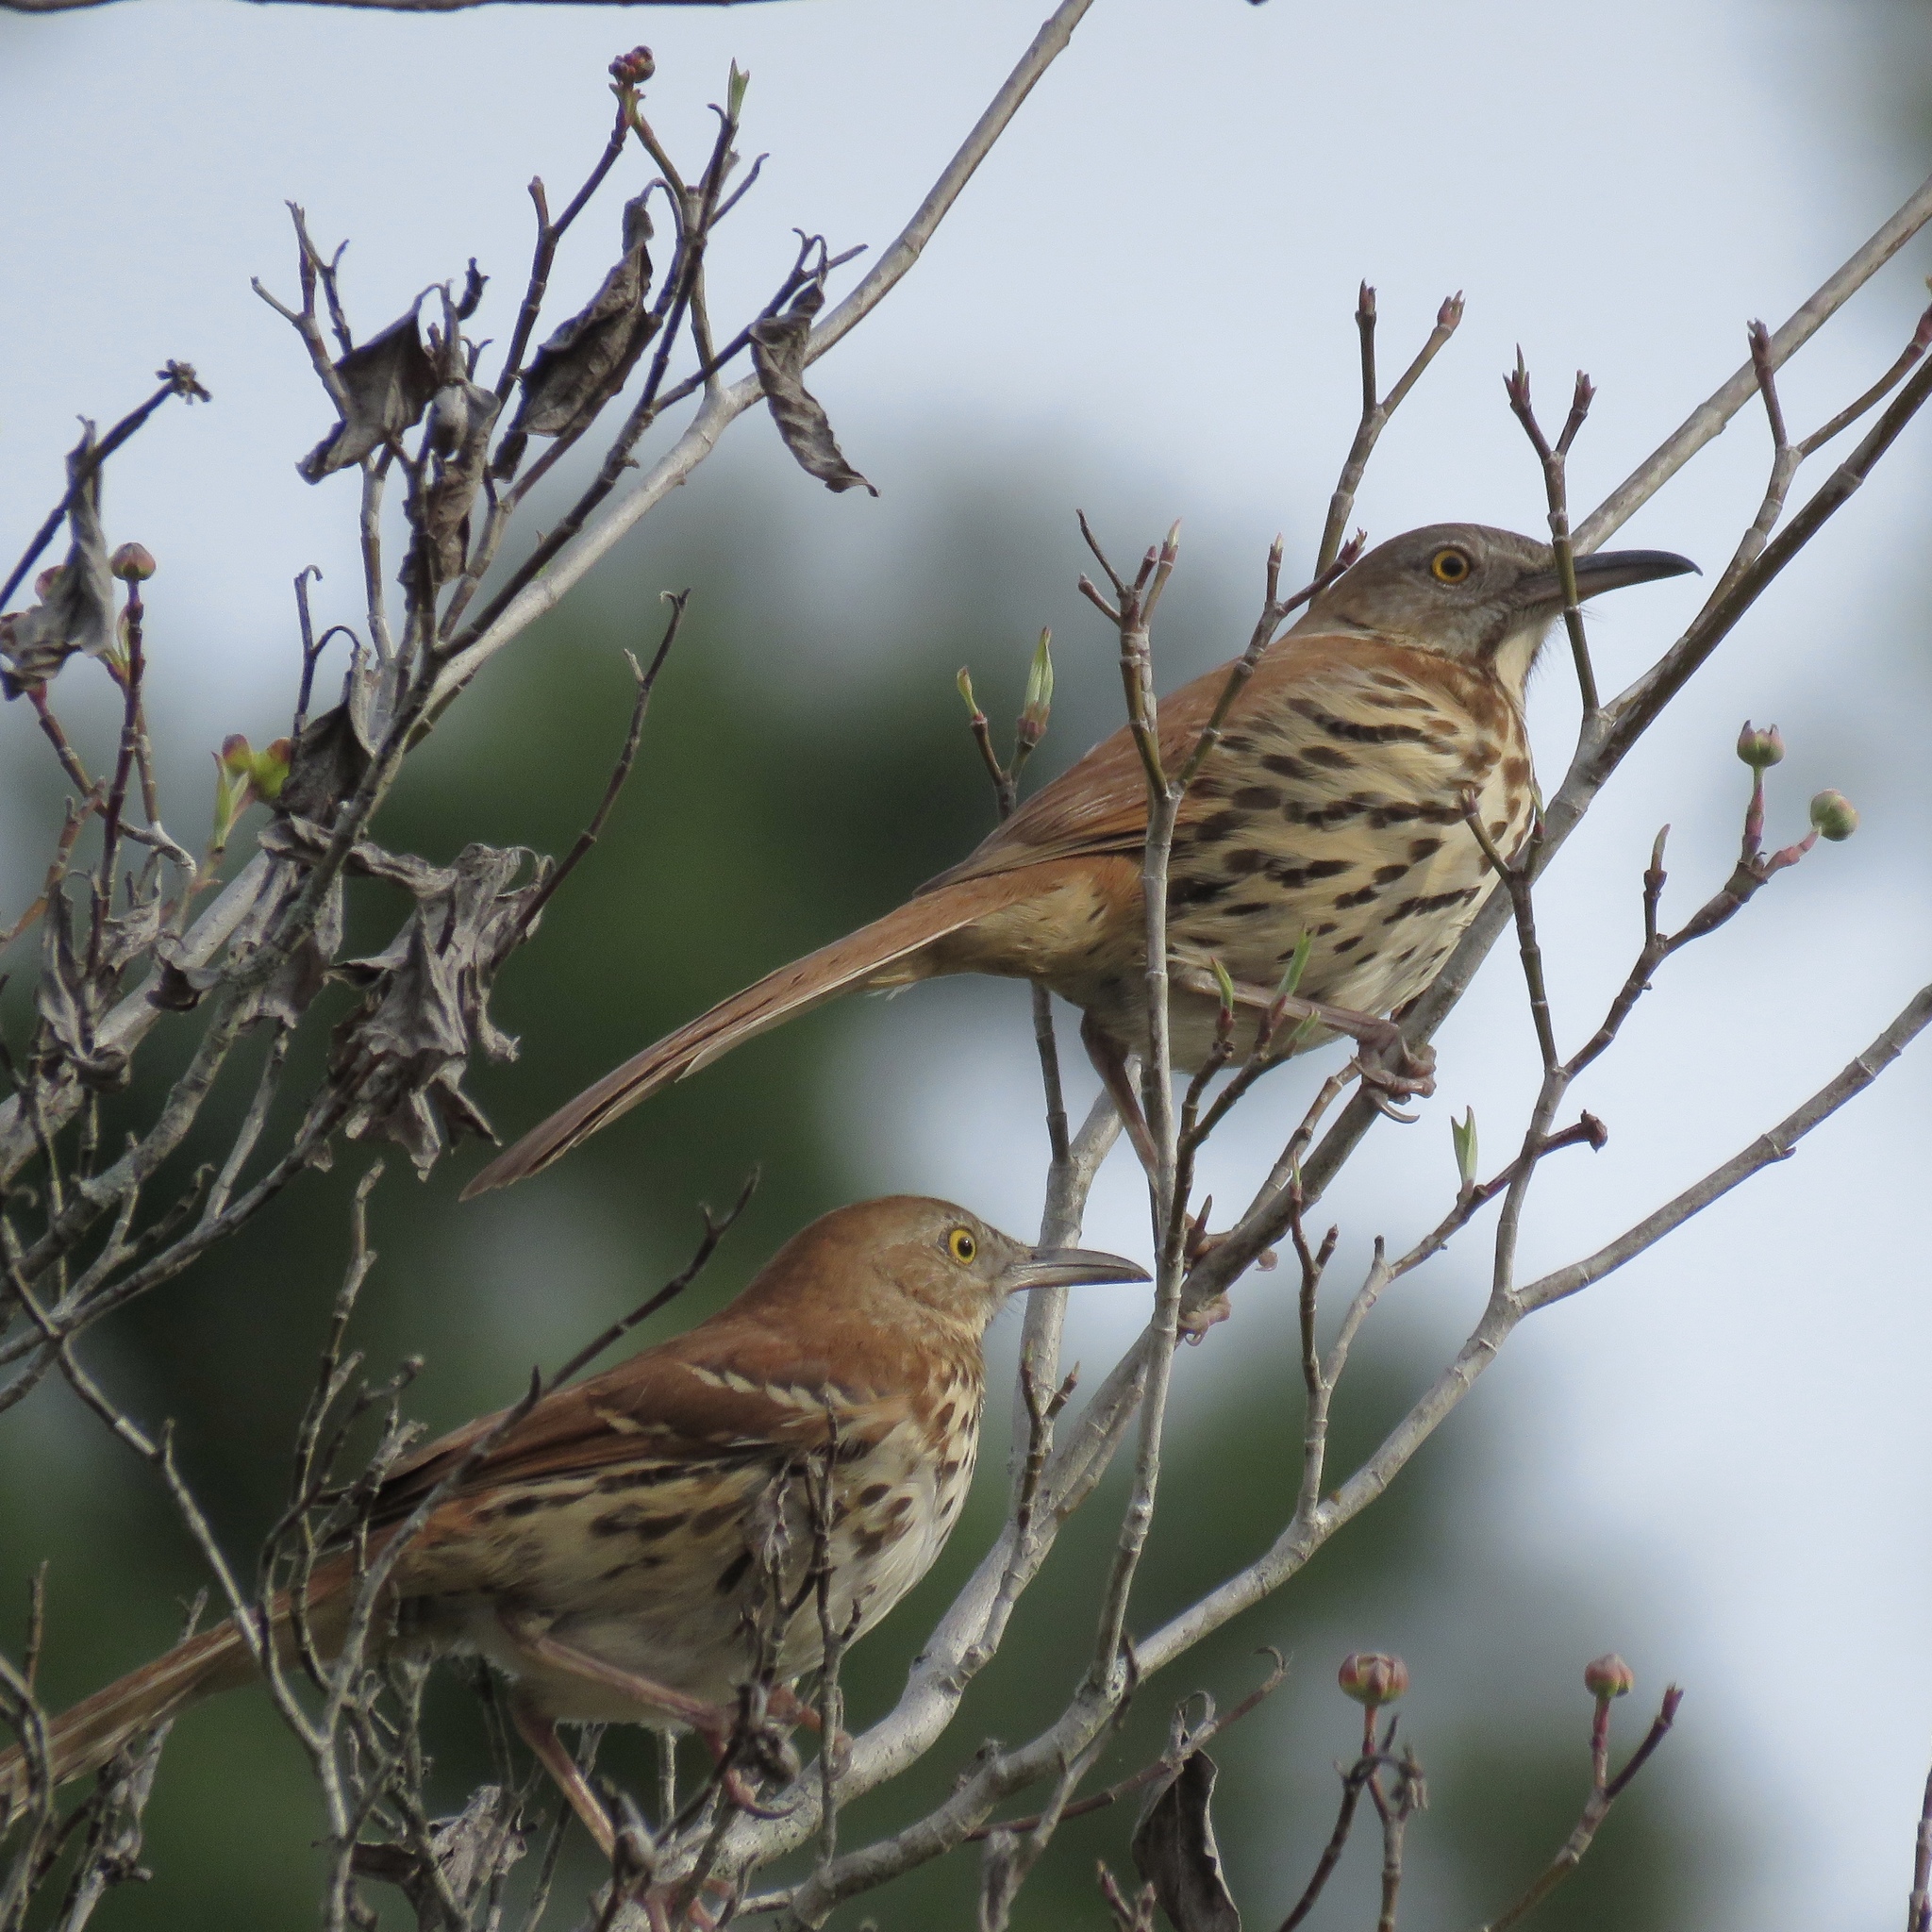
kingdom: Animalia
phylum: Chordata
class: Aves
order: Passeriformes
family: Mimidae
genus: Toxostoma
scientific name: Toxostoma rufum
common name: Brown thrasher
